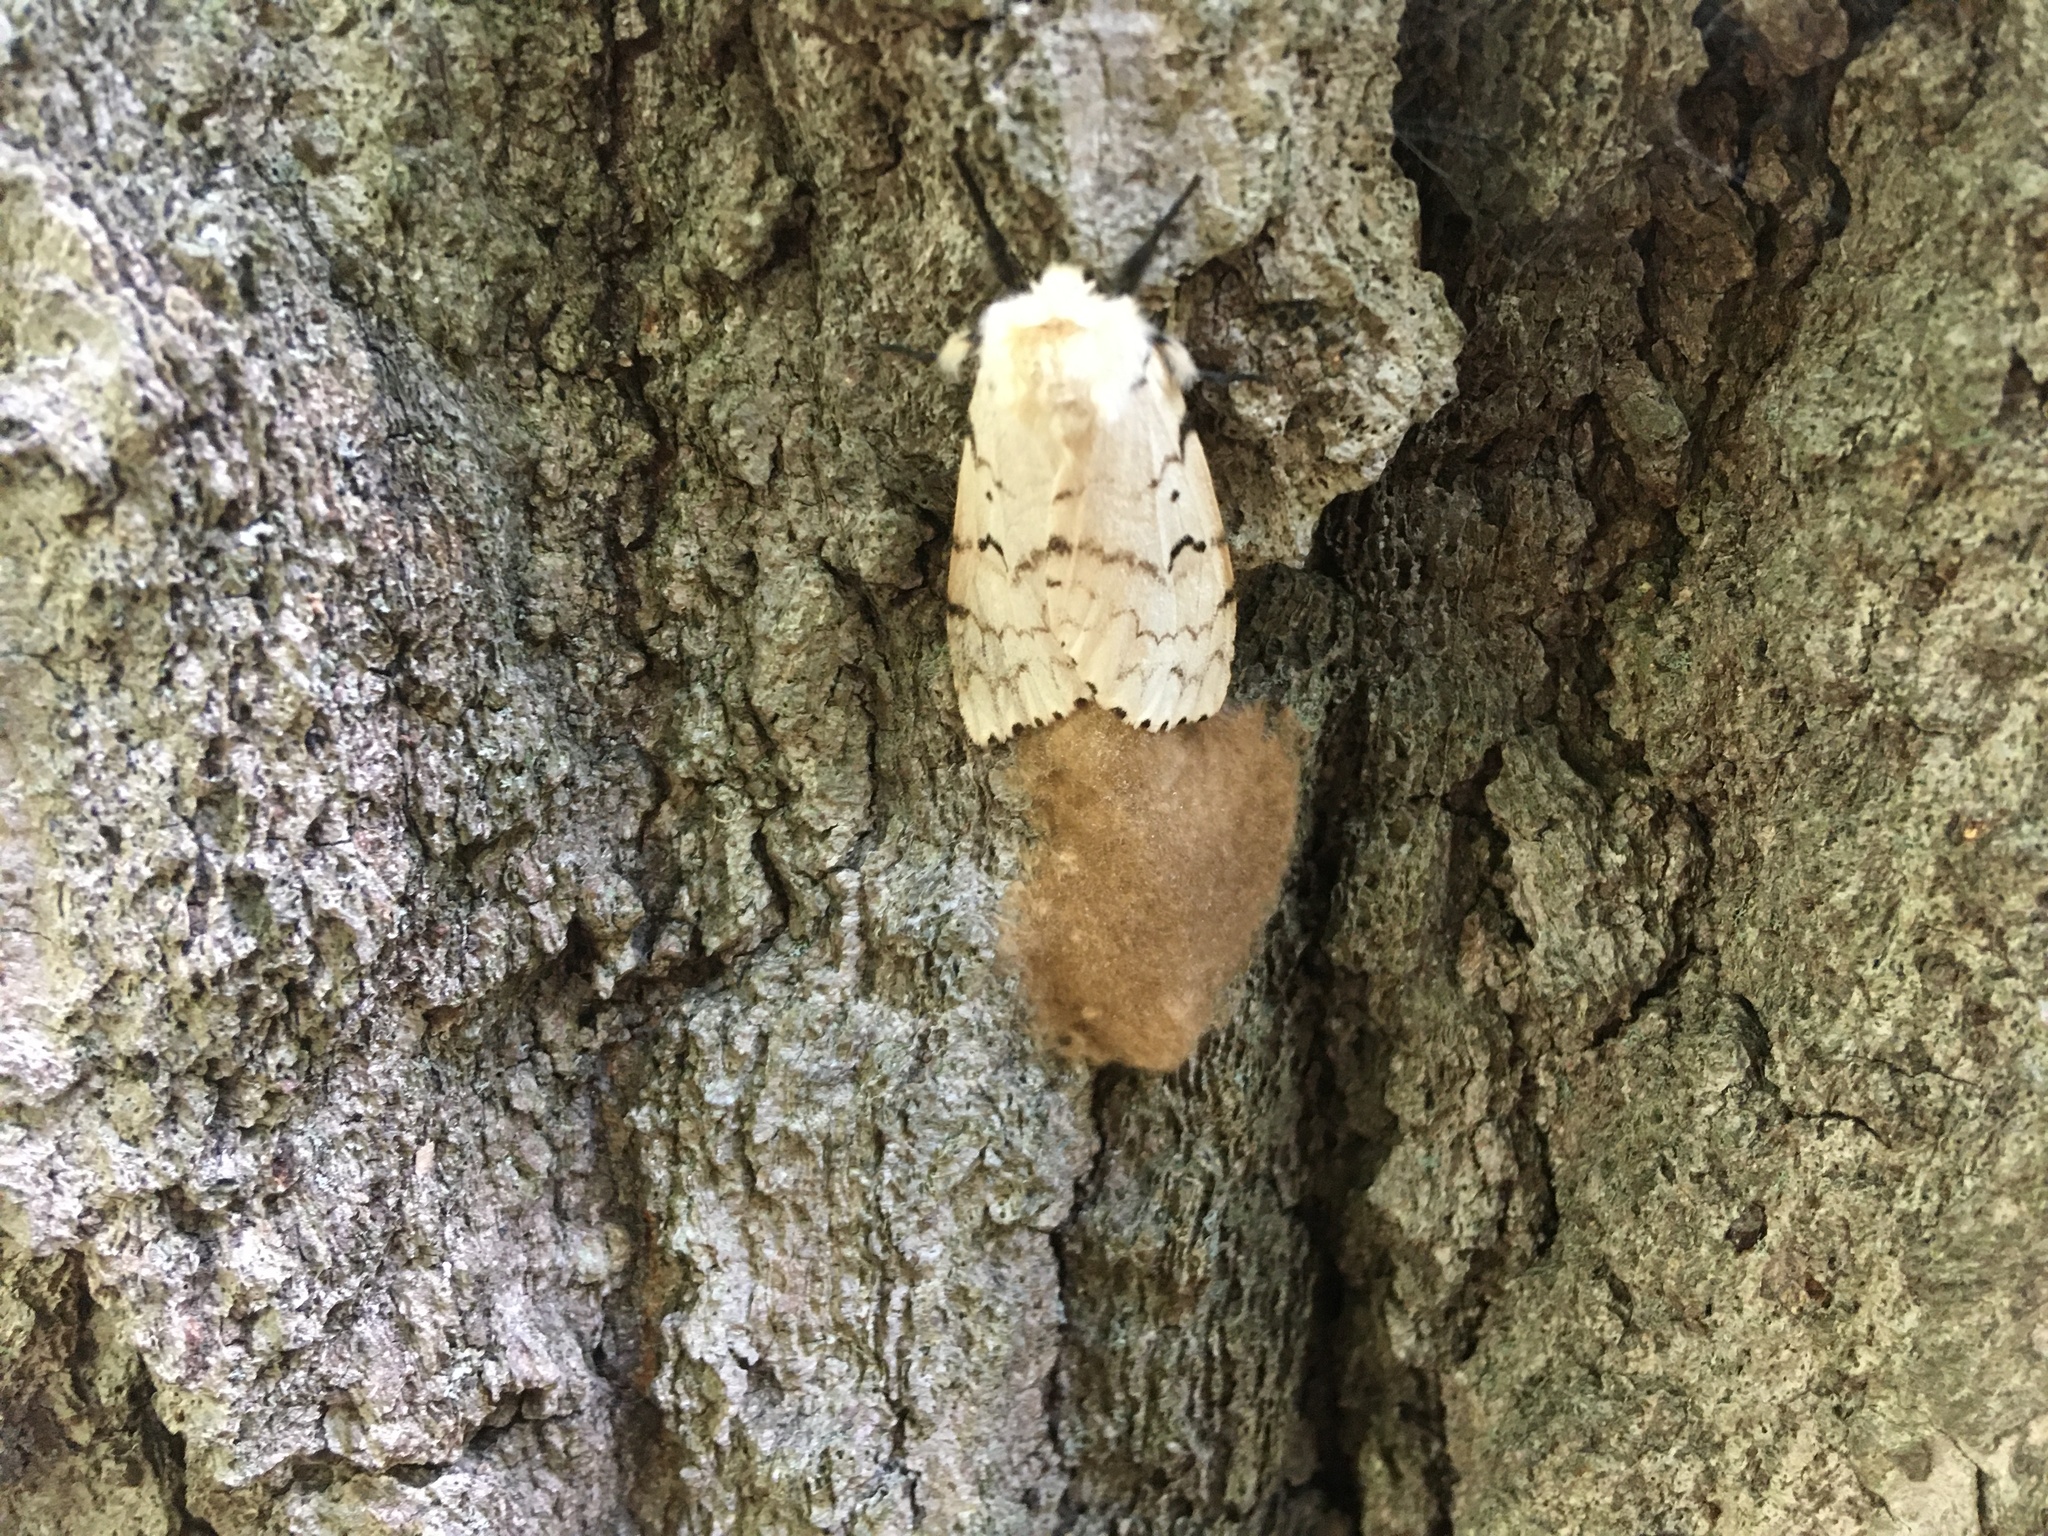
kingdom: Animalia
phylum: Arthropoda
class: Insecta
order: Lepidoptera
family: Erebidae
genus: Lymantria
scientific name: Lymantria dispar
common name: Gypsy moth
